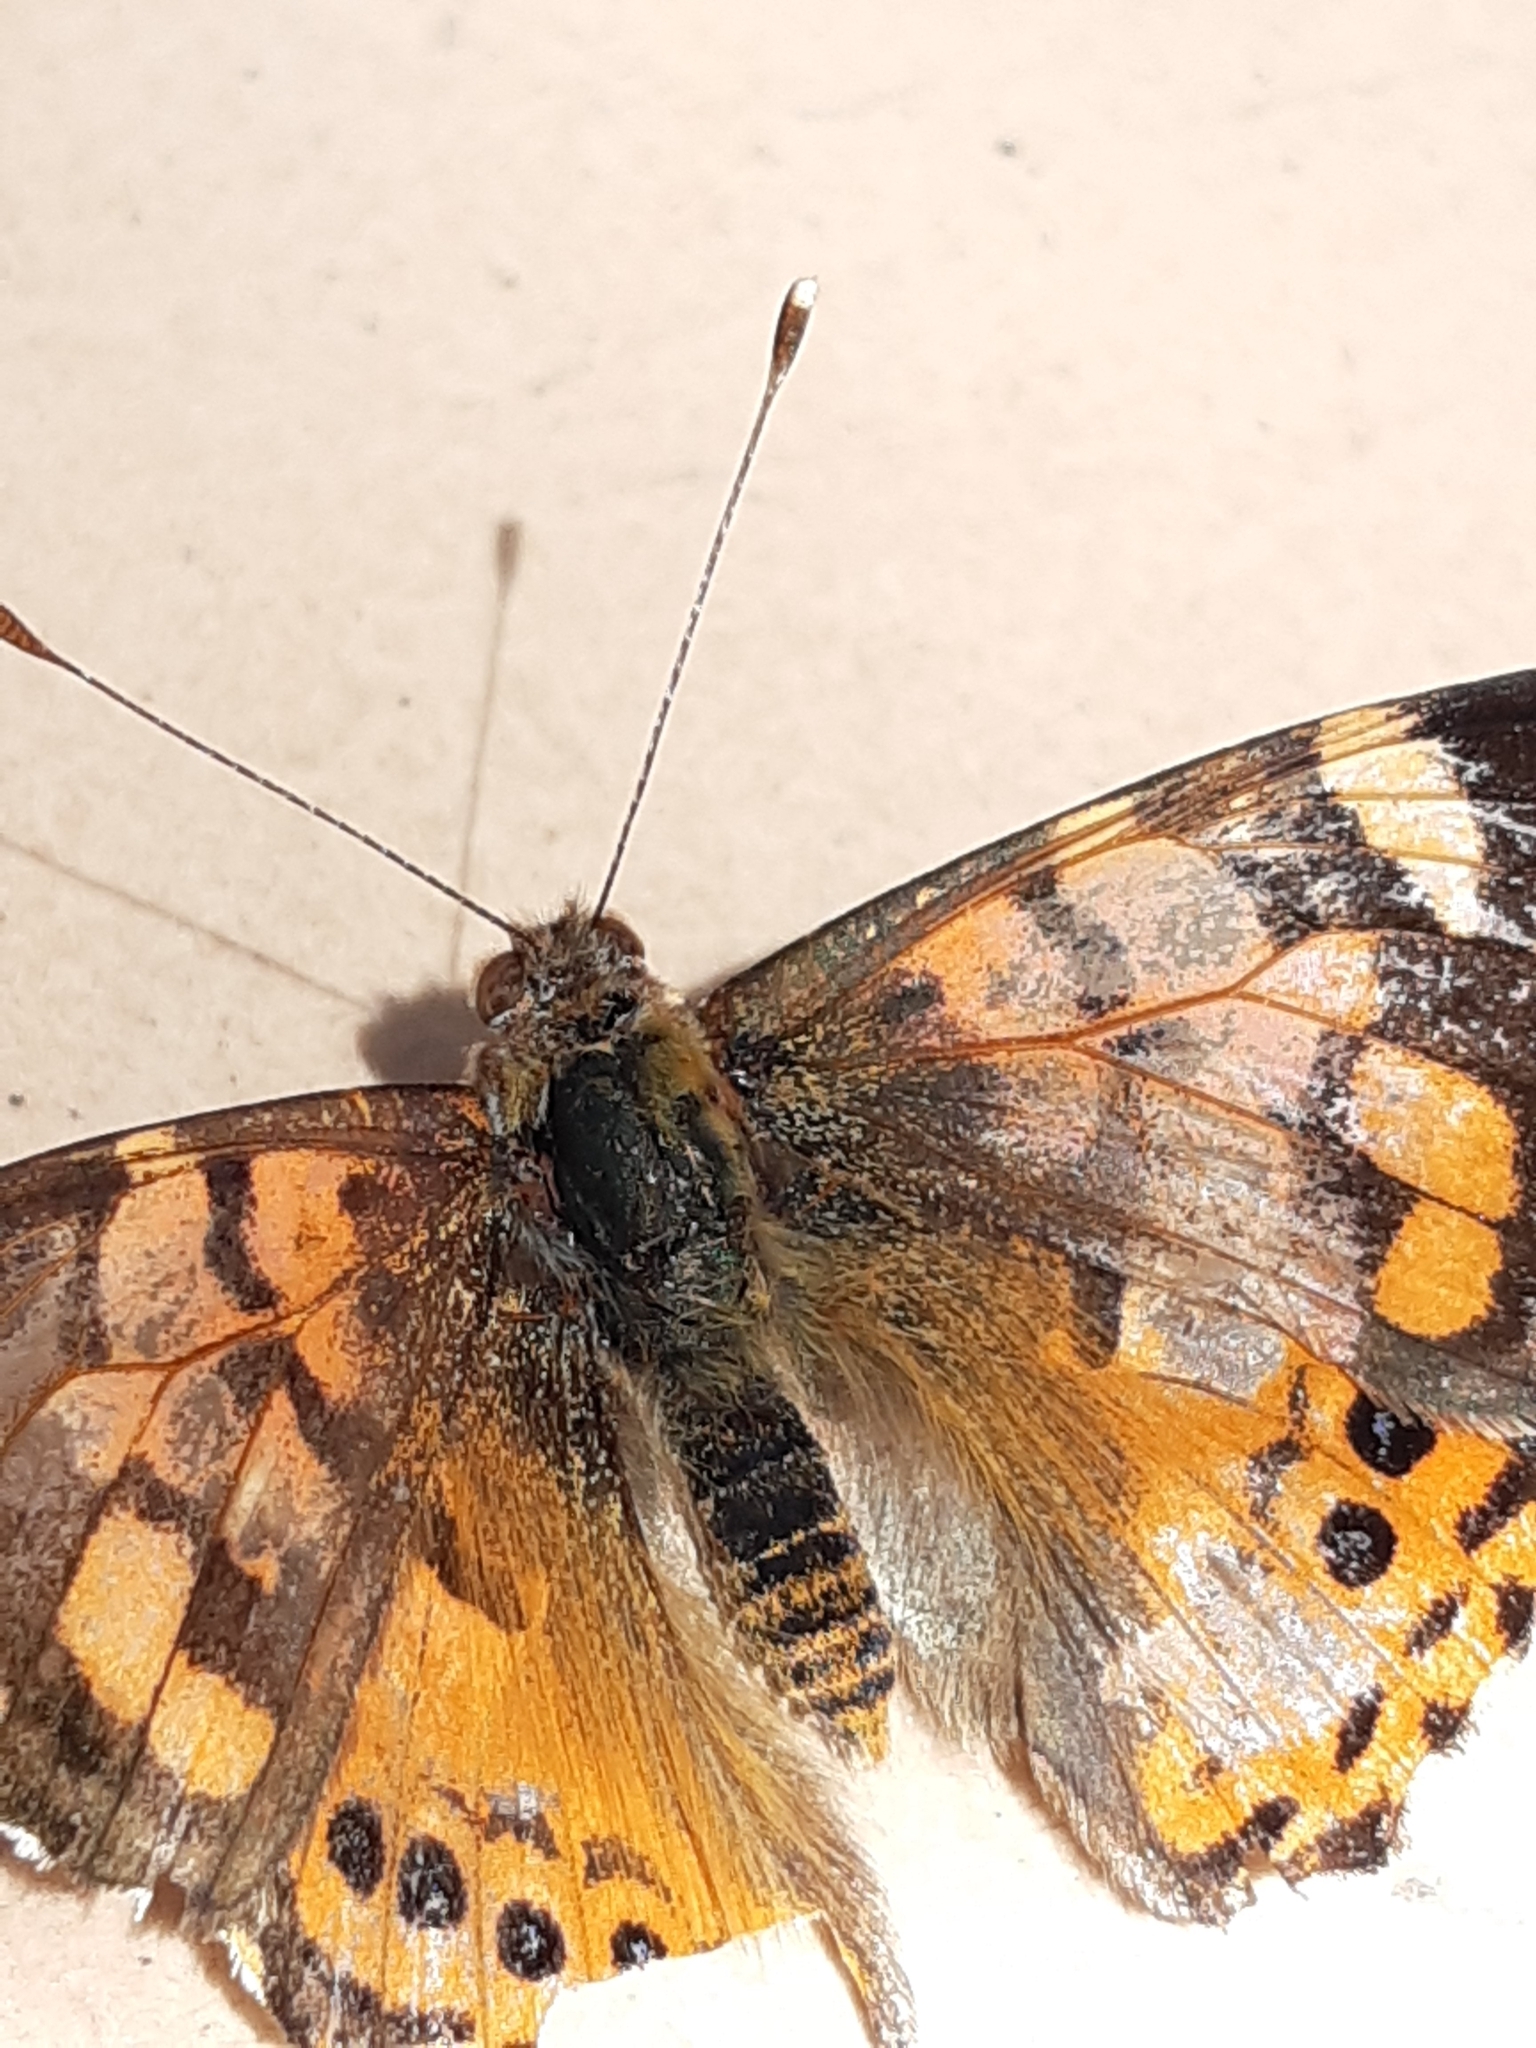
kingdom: Animalia
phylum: Arthropoda
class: Insecta
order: Lepidoptera
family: Nymphalidae
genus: Vanessa
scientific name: Vanessa carye
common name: Subtropical lady
